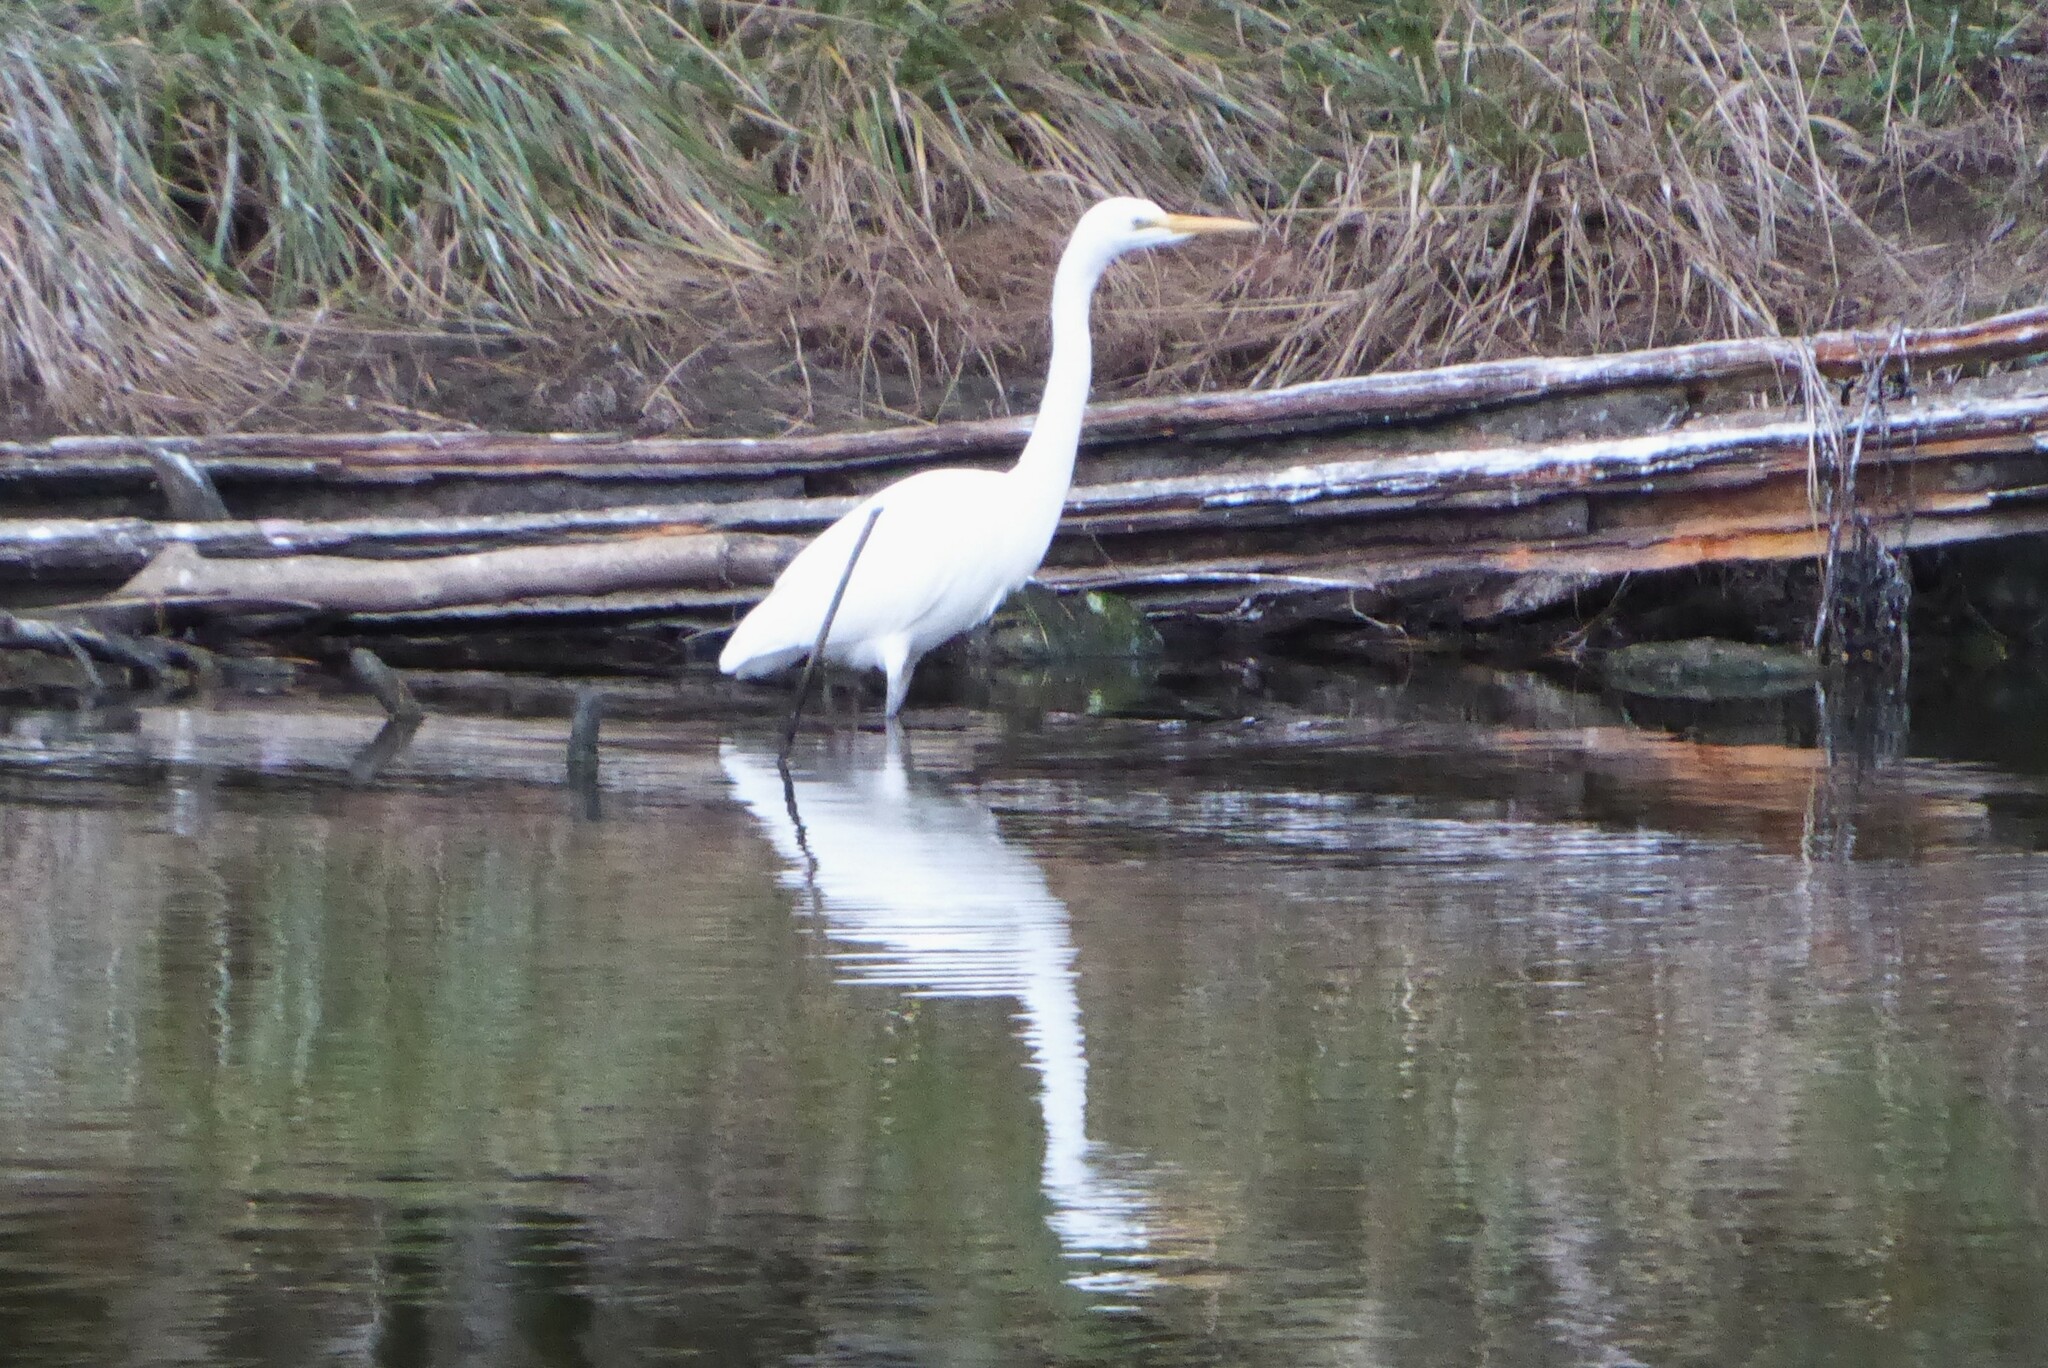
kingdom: Animalia
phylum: Chordata
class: Aves
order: Pelecaniformes
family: Ardeidae
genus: Ardea
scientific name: Ardea modesta
